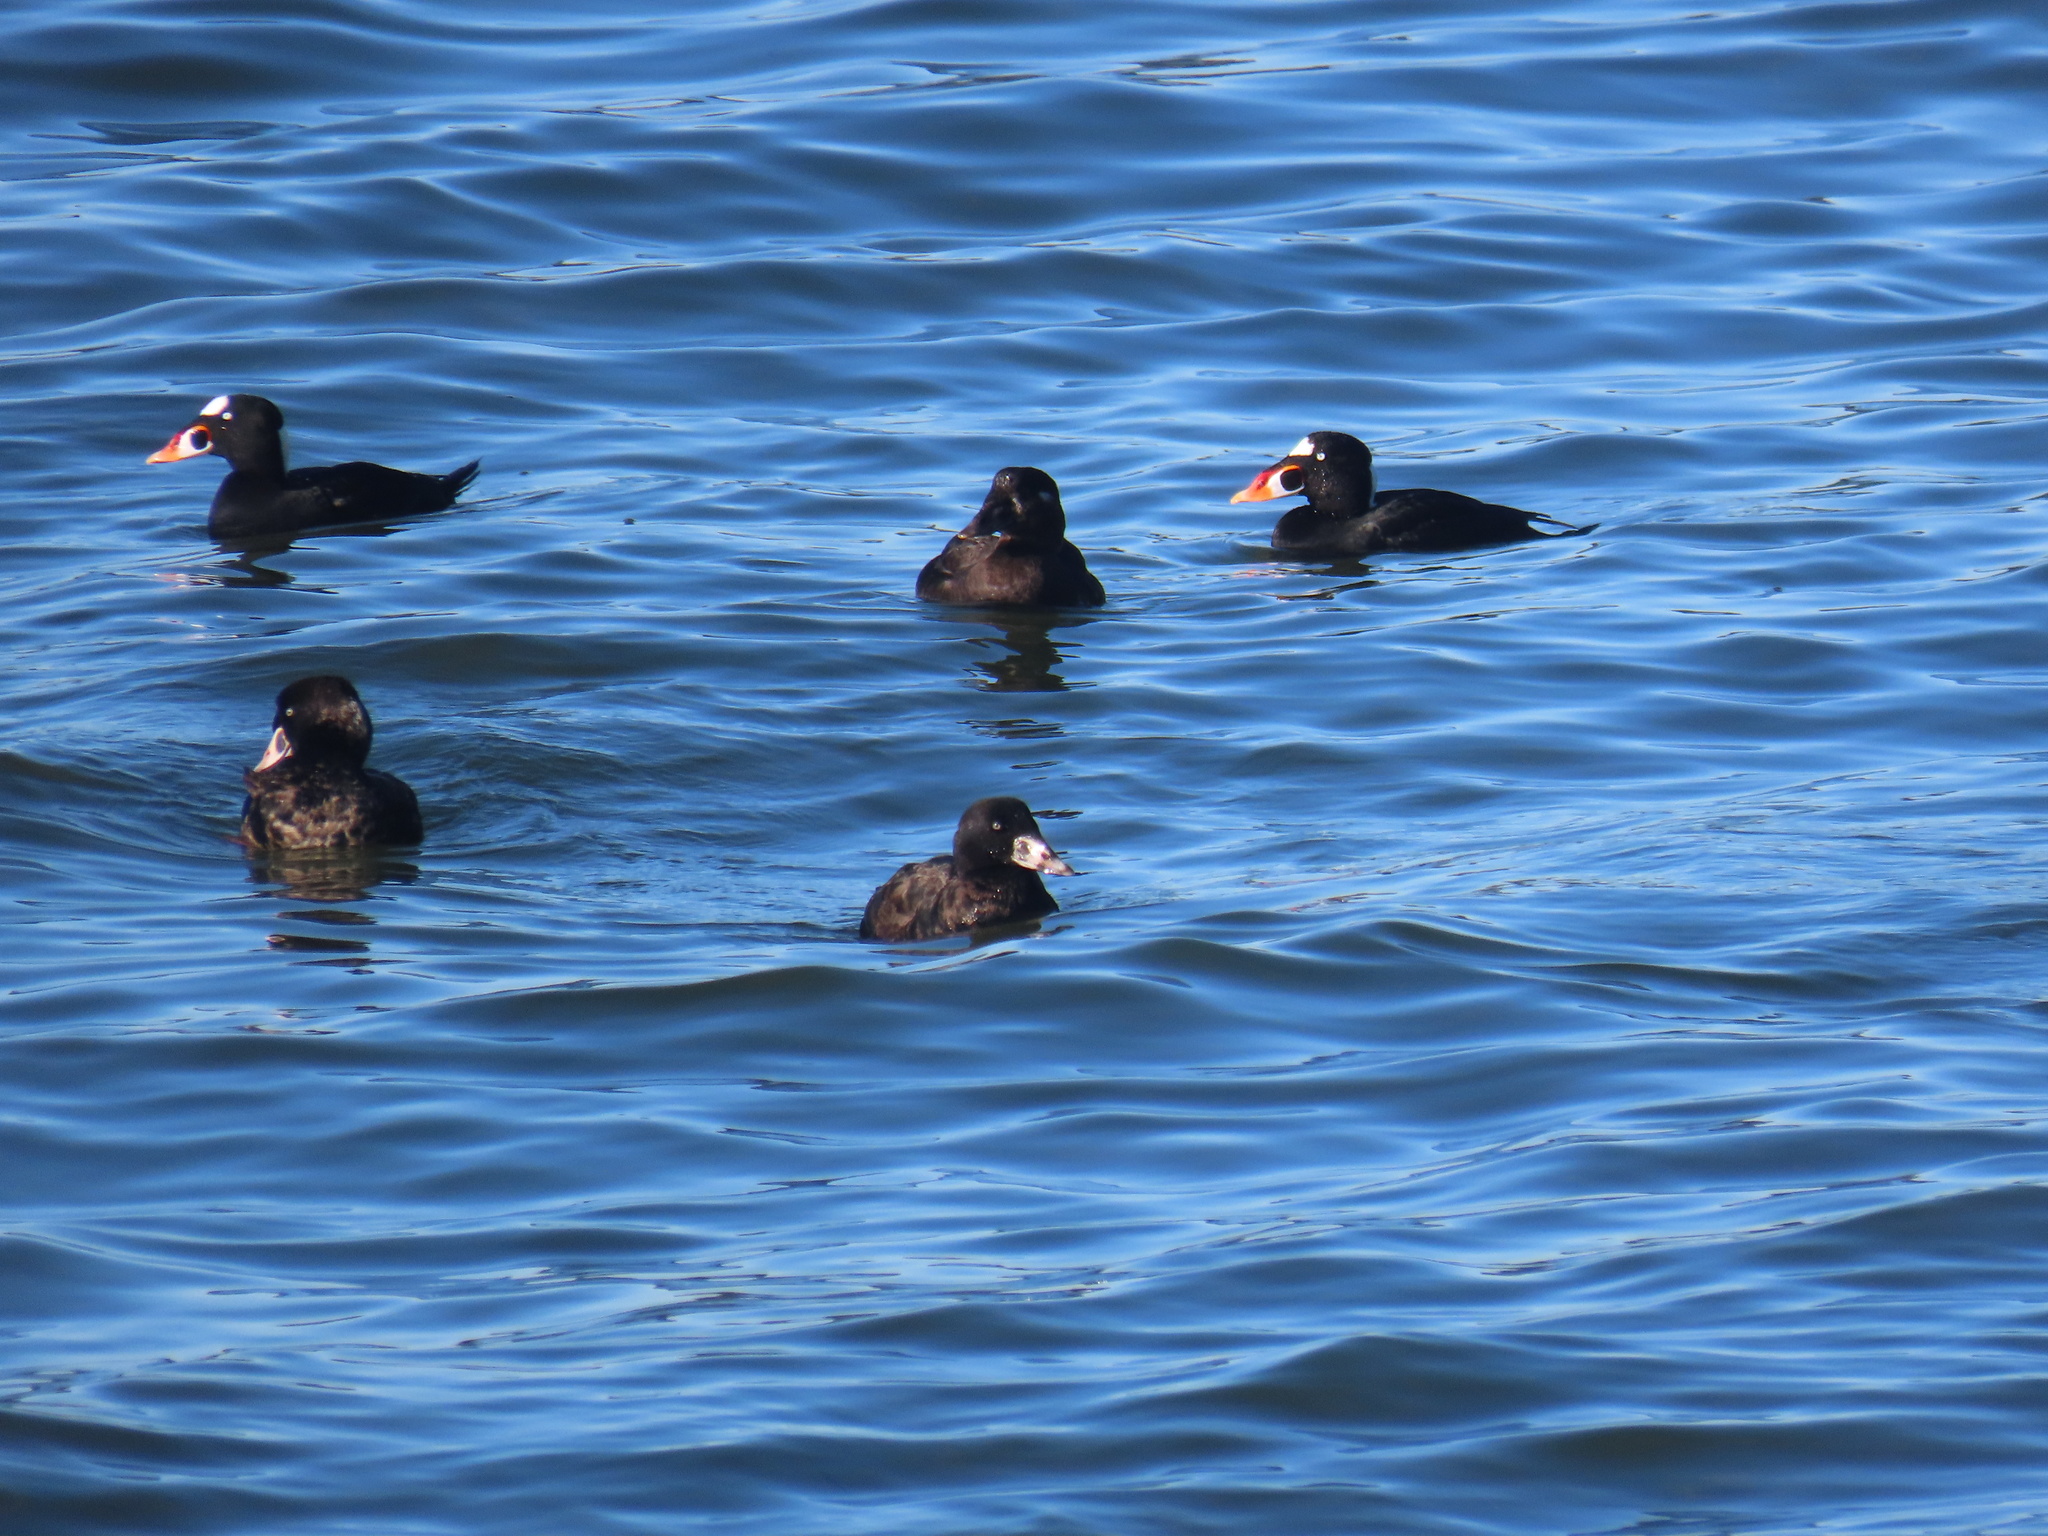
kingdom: Animalia
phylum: Chordata
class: Aves
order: Anseriformes
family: Anatidae
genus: Melanitta
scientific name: Melanitta perspicillata
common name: Surf scoter
